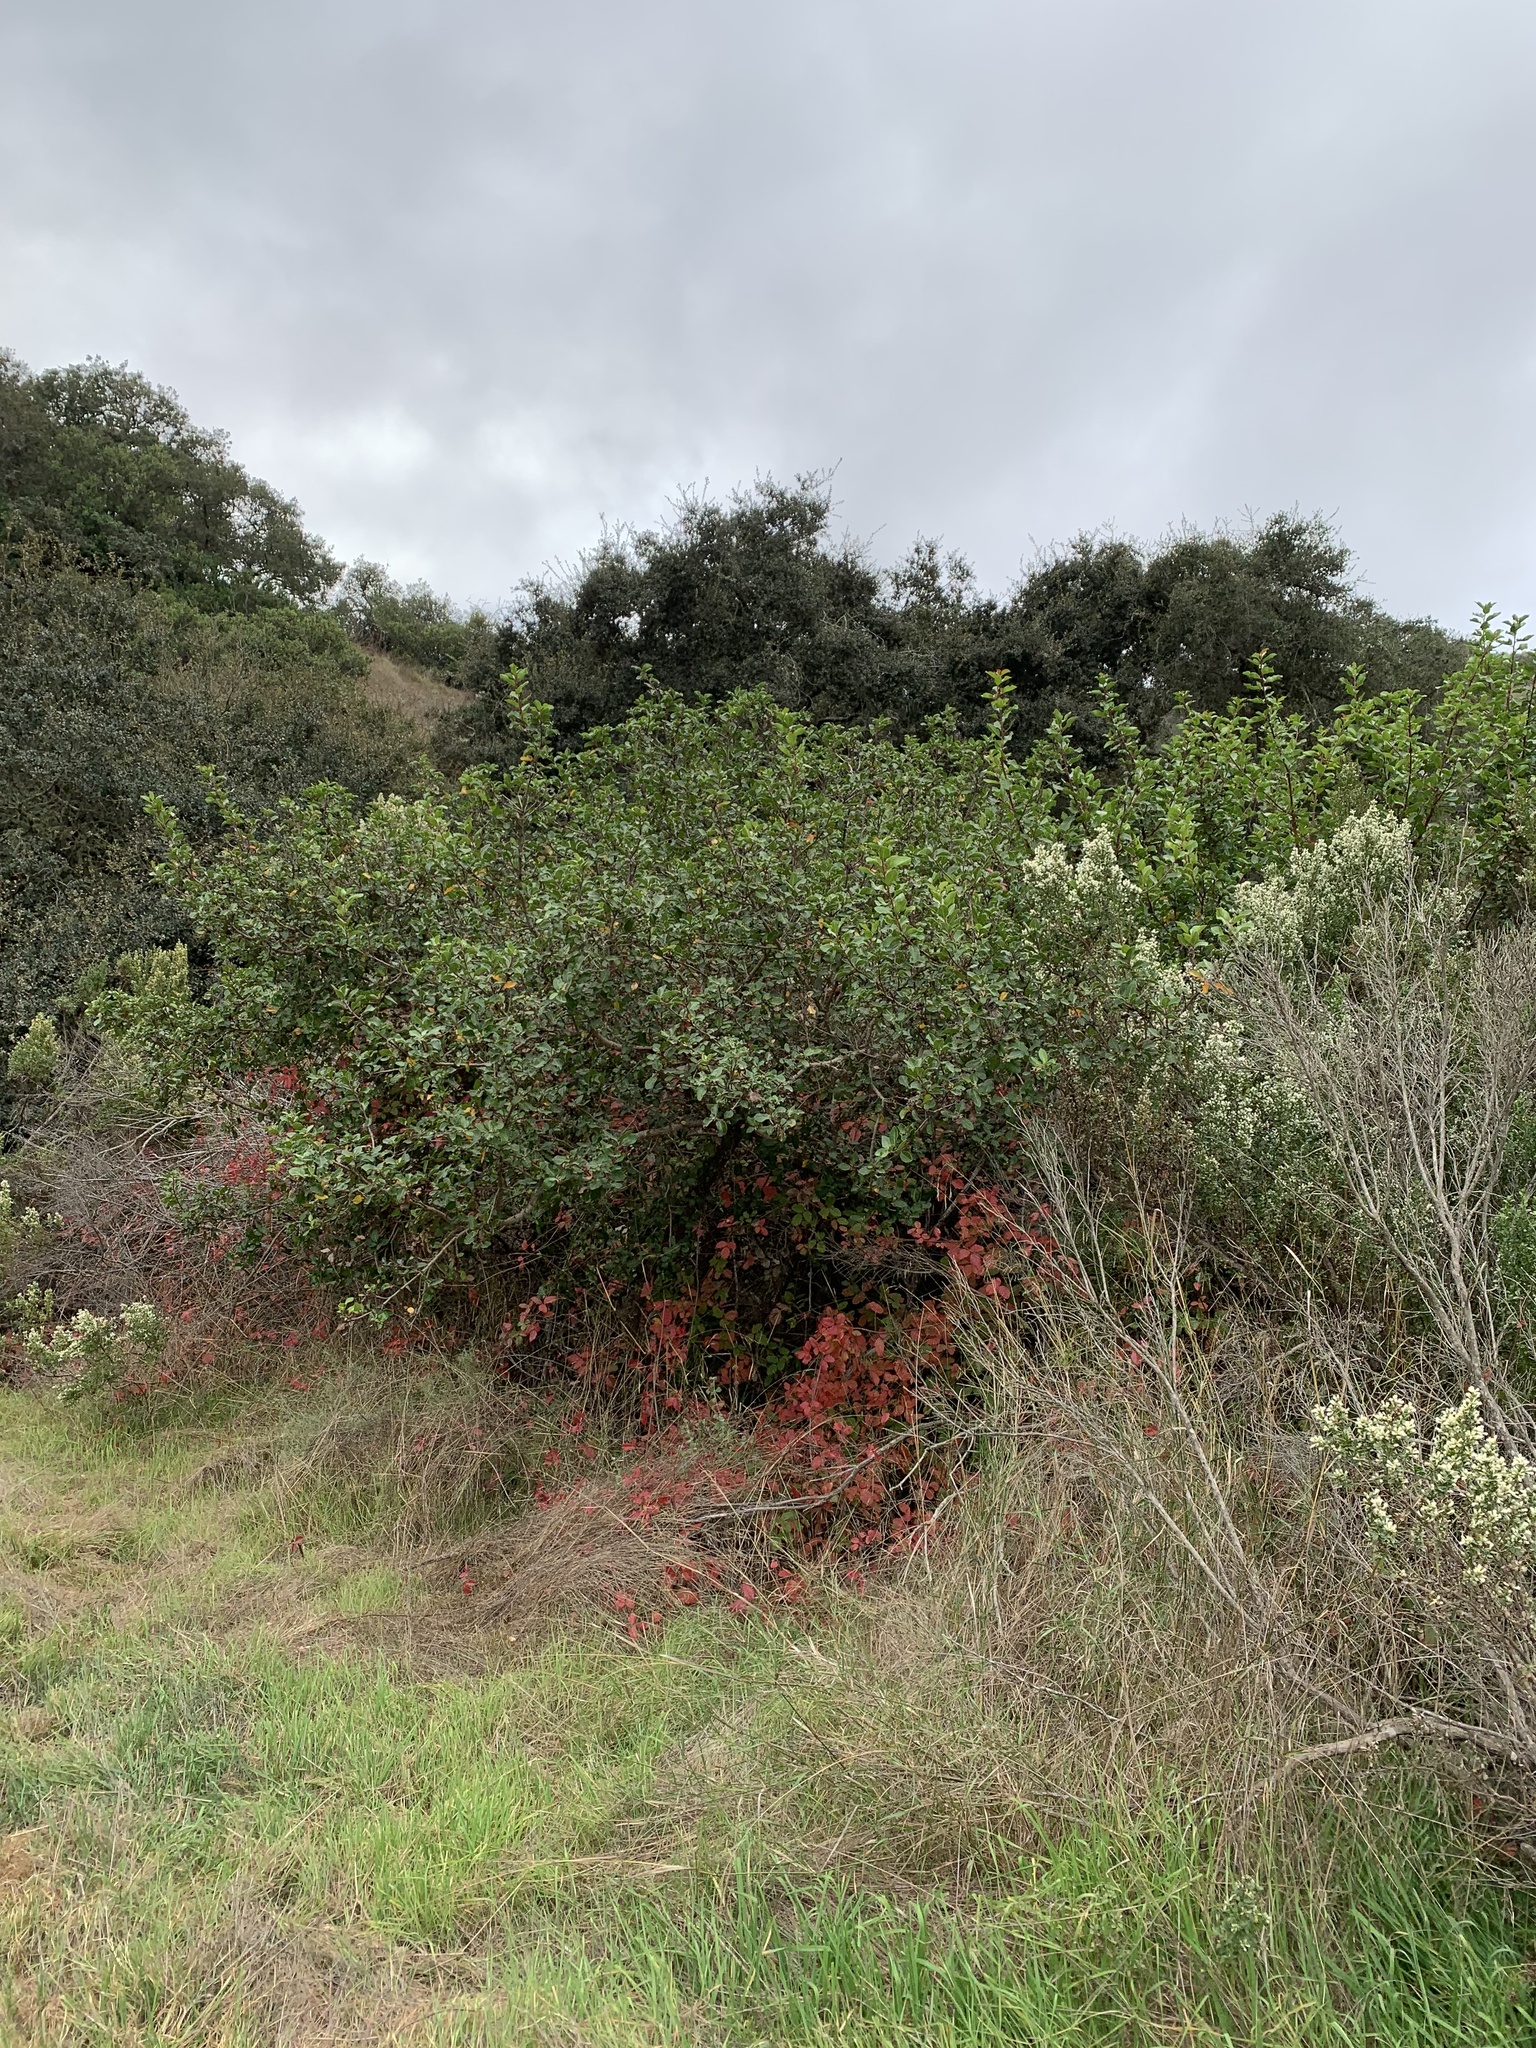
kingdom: Plantae
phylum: Tracheophyta
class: Magnoliopsida
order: Sapindales
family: Anacardiaceae
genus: Rhus
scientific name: Rhus integrifolia
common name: Lemonade sumac
